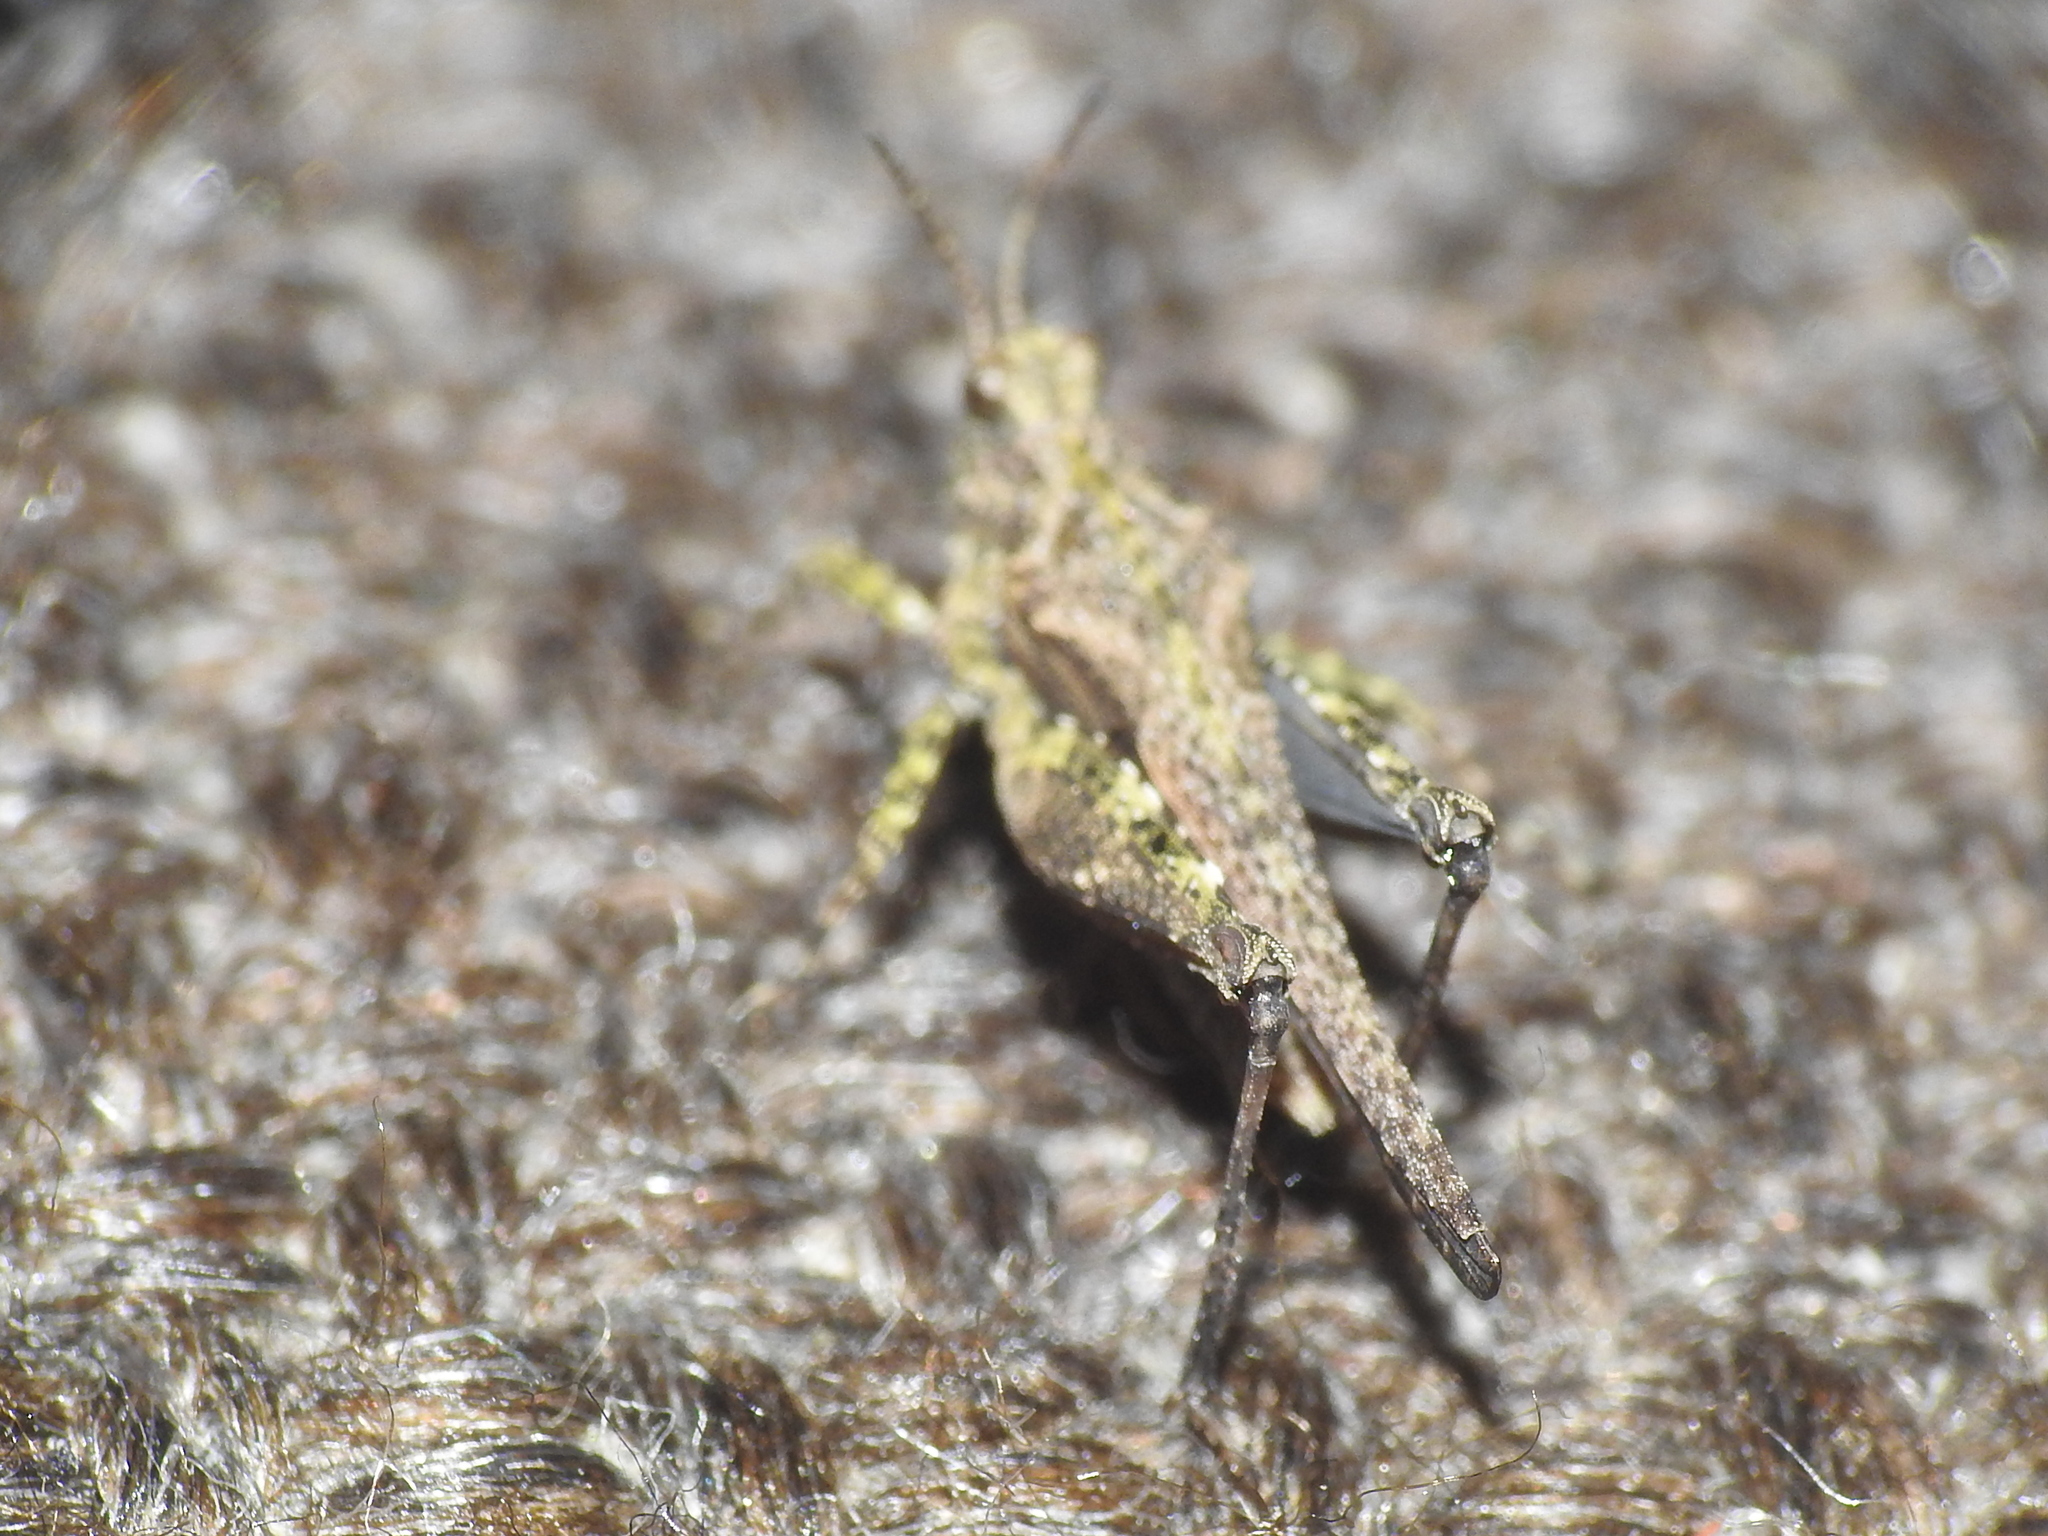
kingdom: Animalia
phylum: Arthropoda
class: Insecta
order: Orthoptera
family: Tetrigidae
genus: Tetrix
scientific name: Tetrix ceperoi
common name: Cepero's ground-hopper
